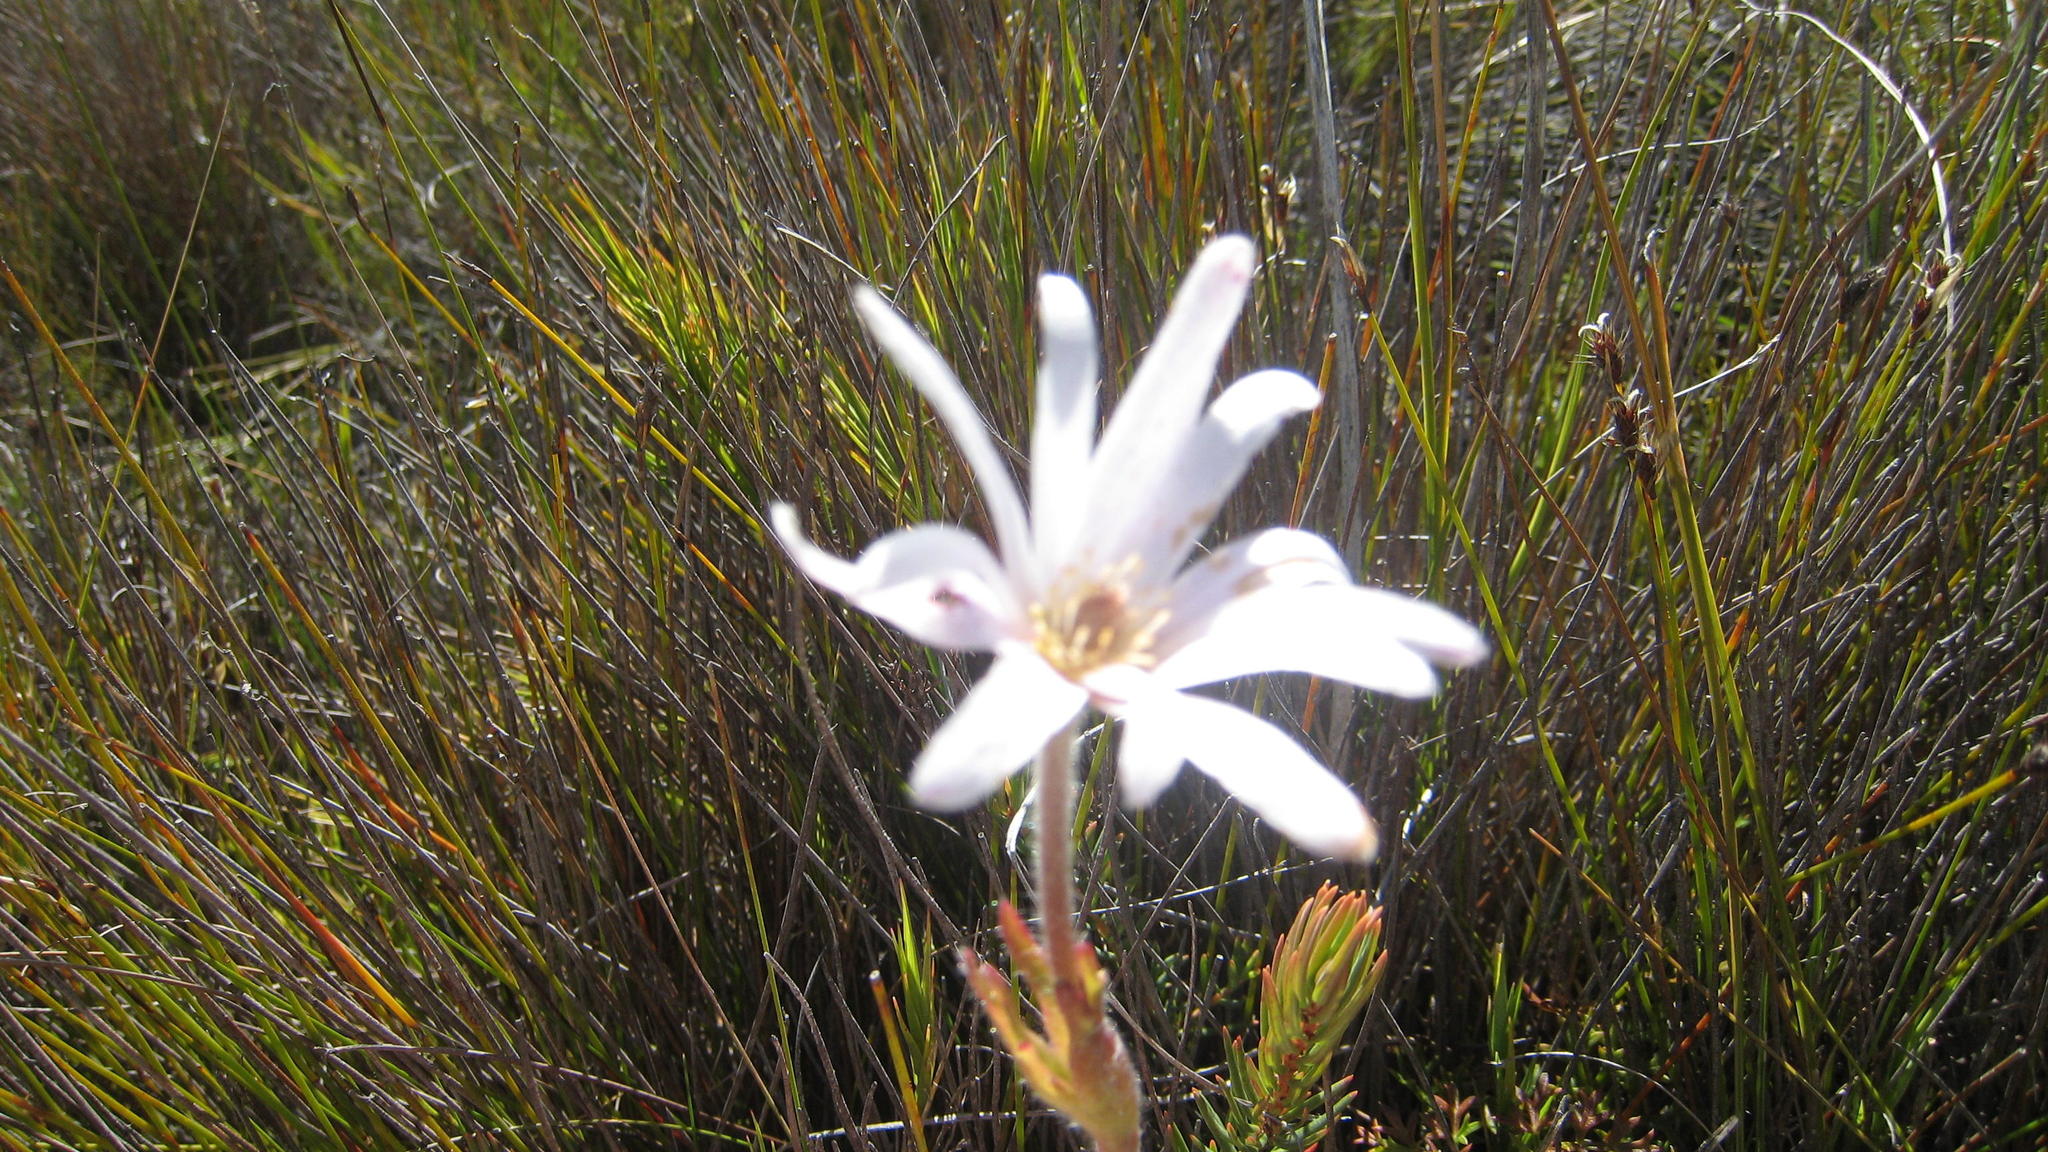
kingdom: Plantae
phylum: Tracheophyta
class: Magnoliopsida
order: Ranunculales
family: Ranunculaceae
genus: Knowltonia
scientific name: Knowltonia tenuifolia
